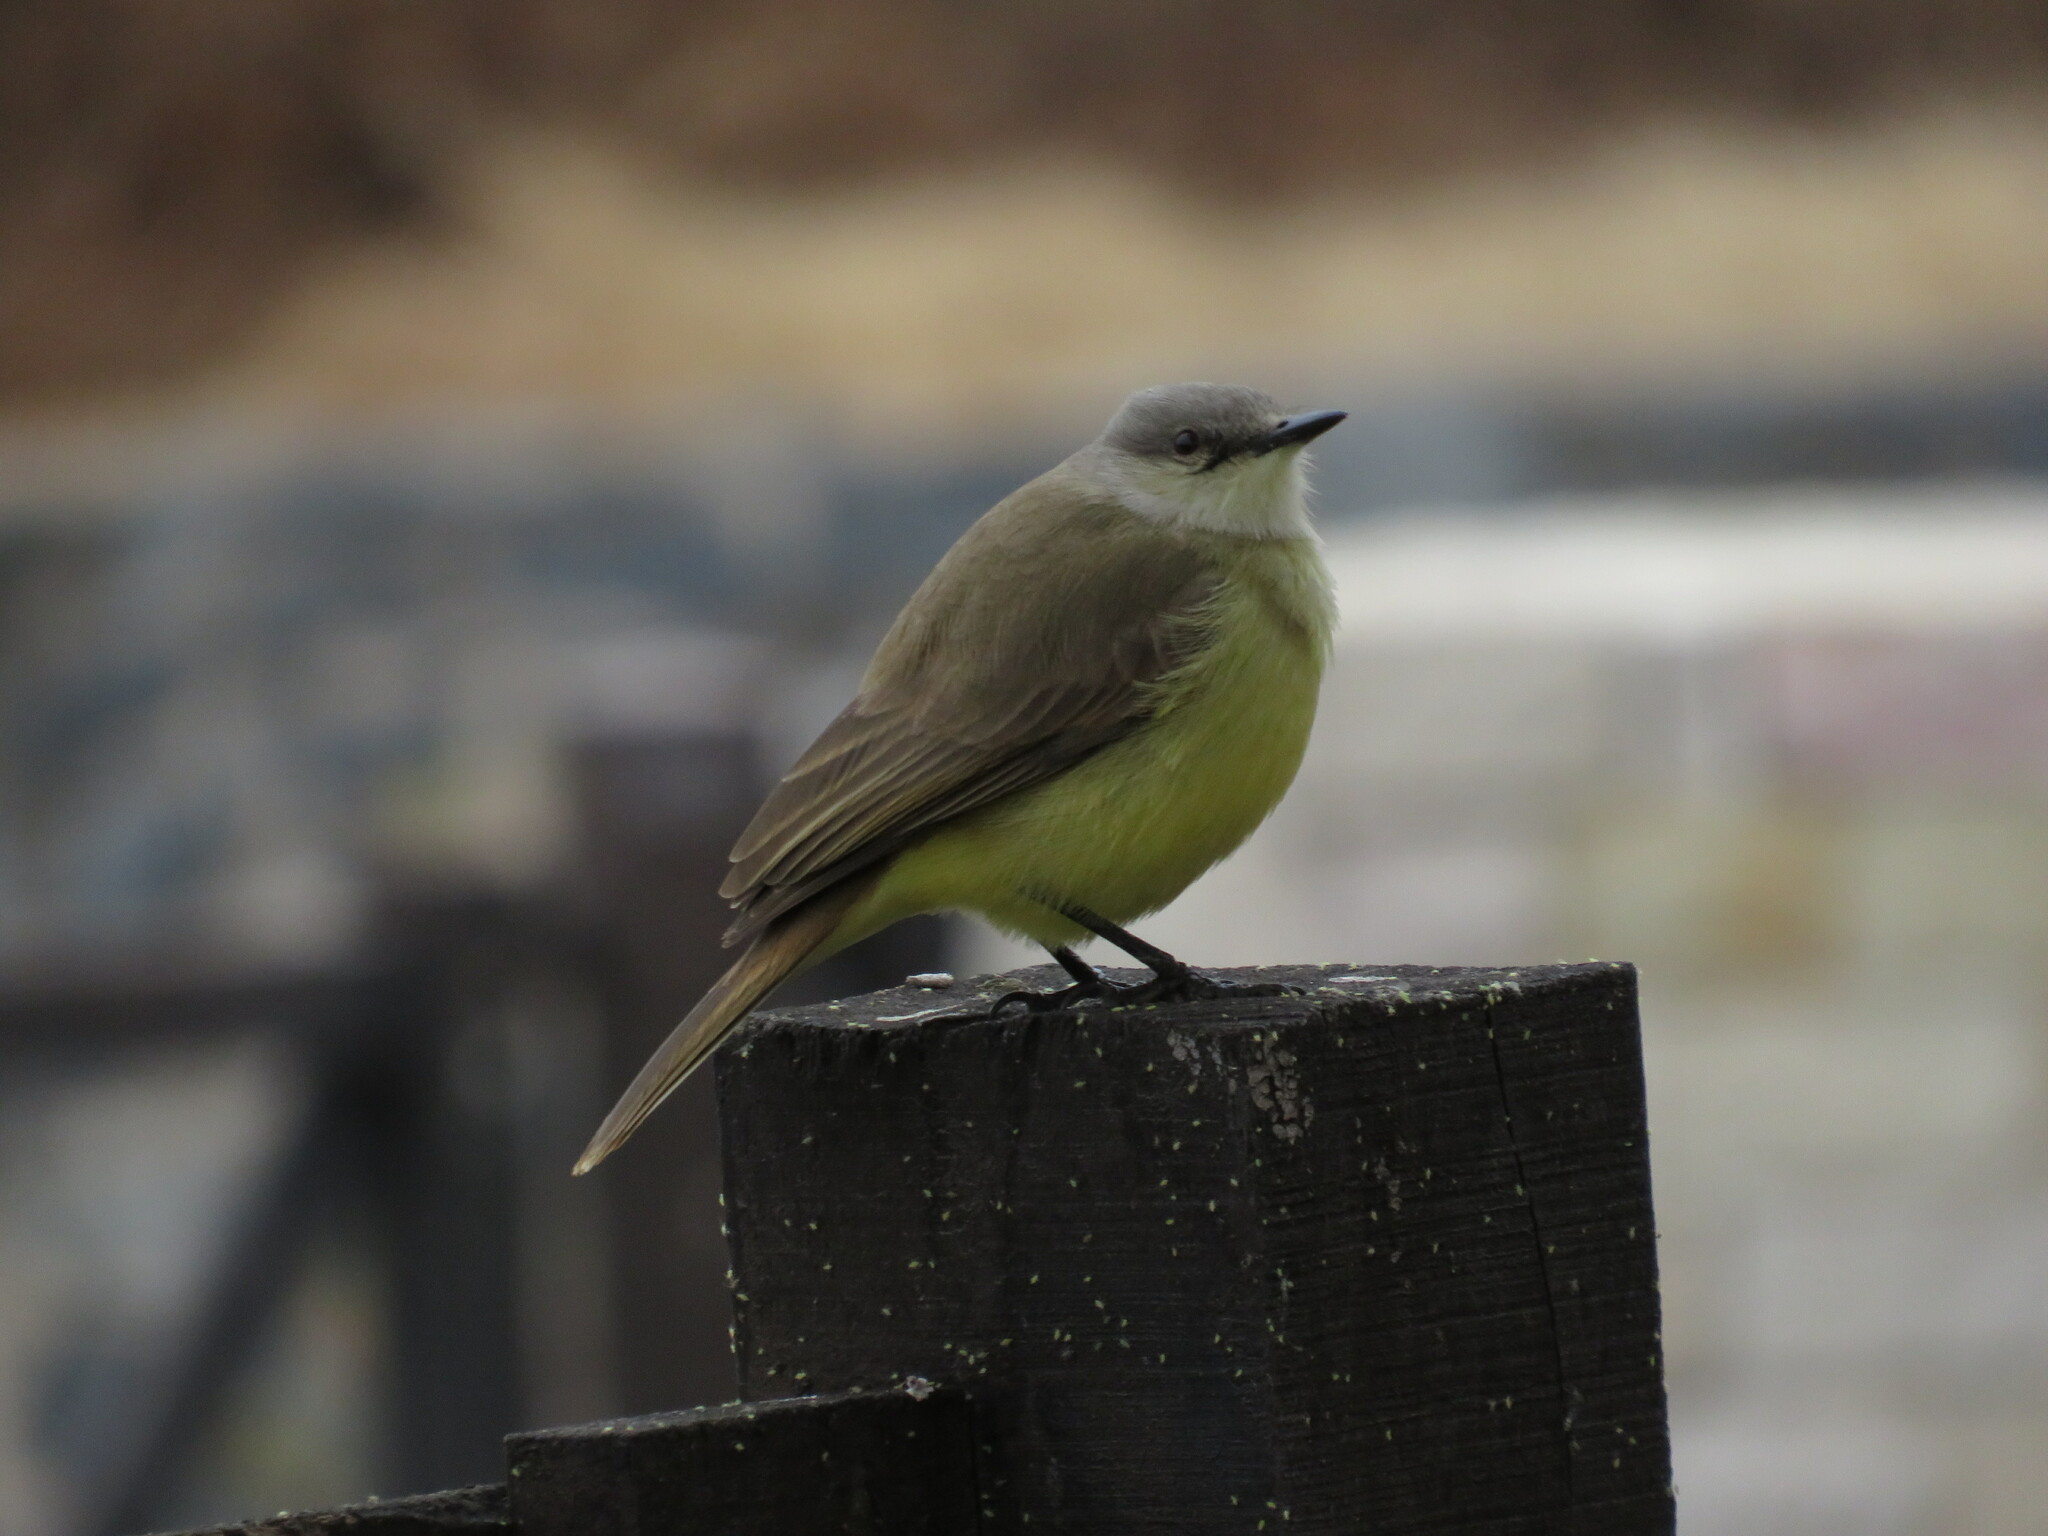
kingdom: Animalia
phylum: Chordata
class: Aves
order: Passeriformes
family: Tyrannidae
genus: Machetornis
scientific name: Machetornis rixosa
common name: Cattle tyrant
